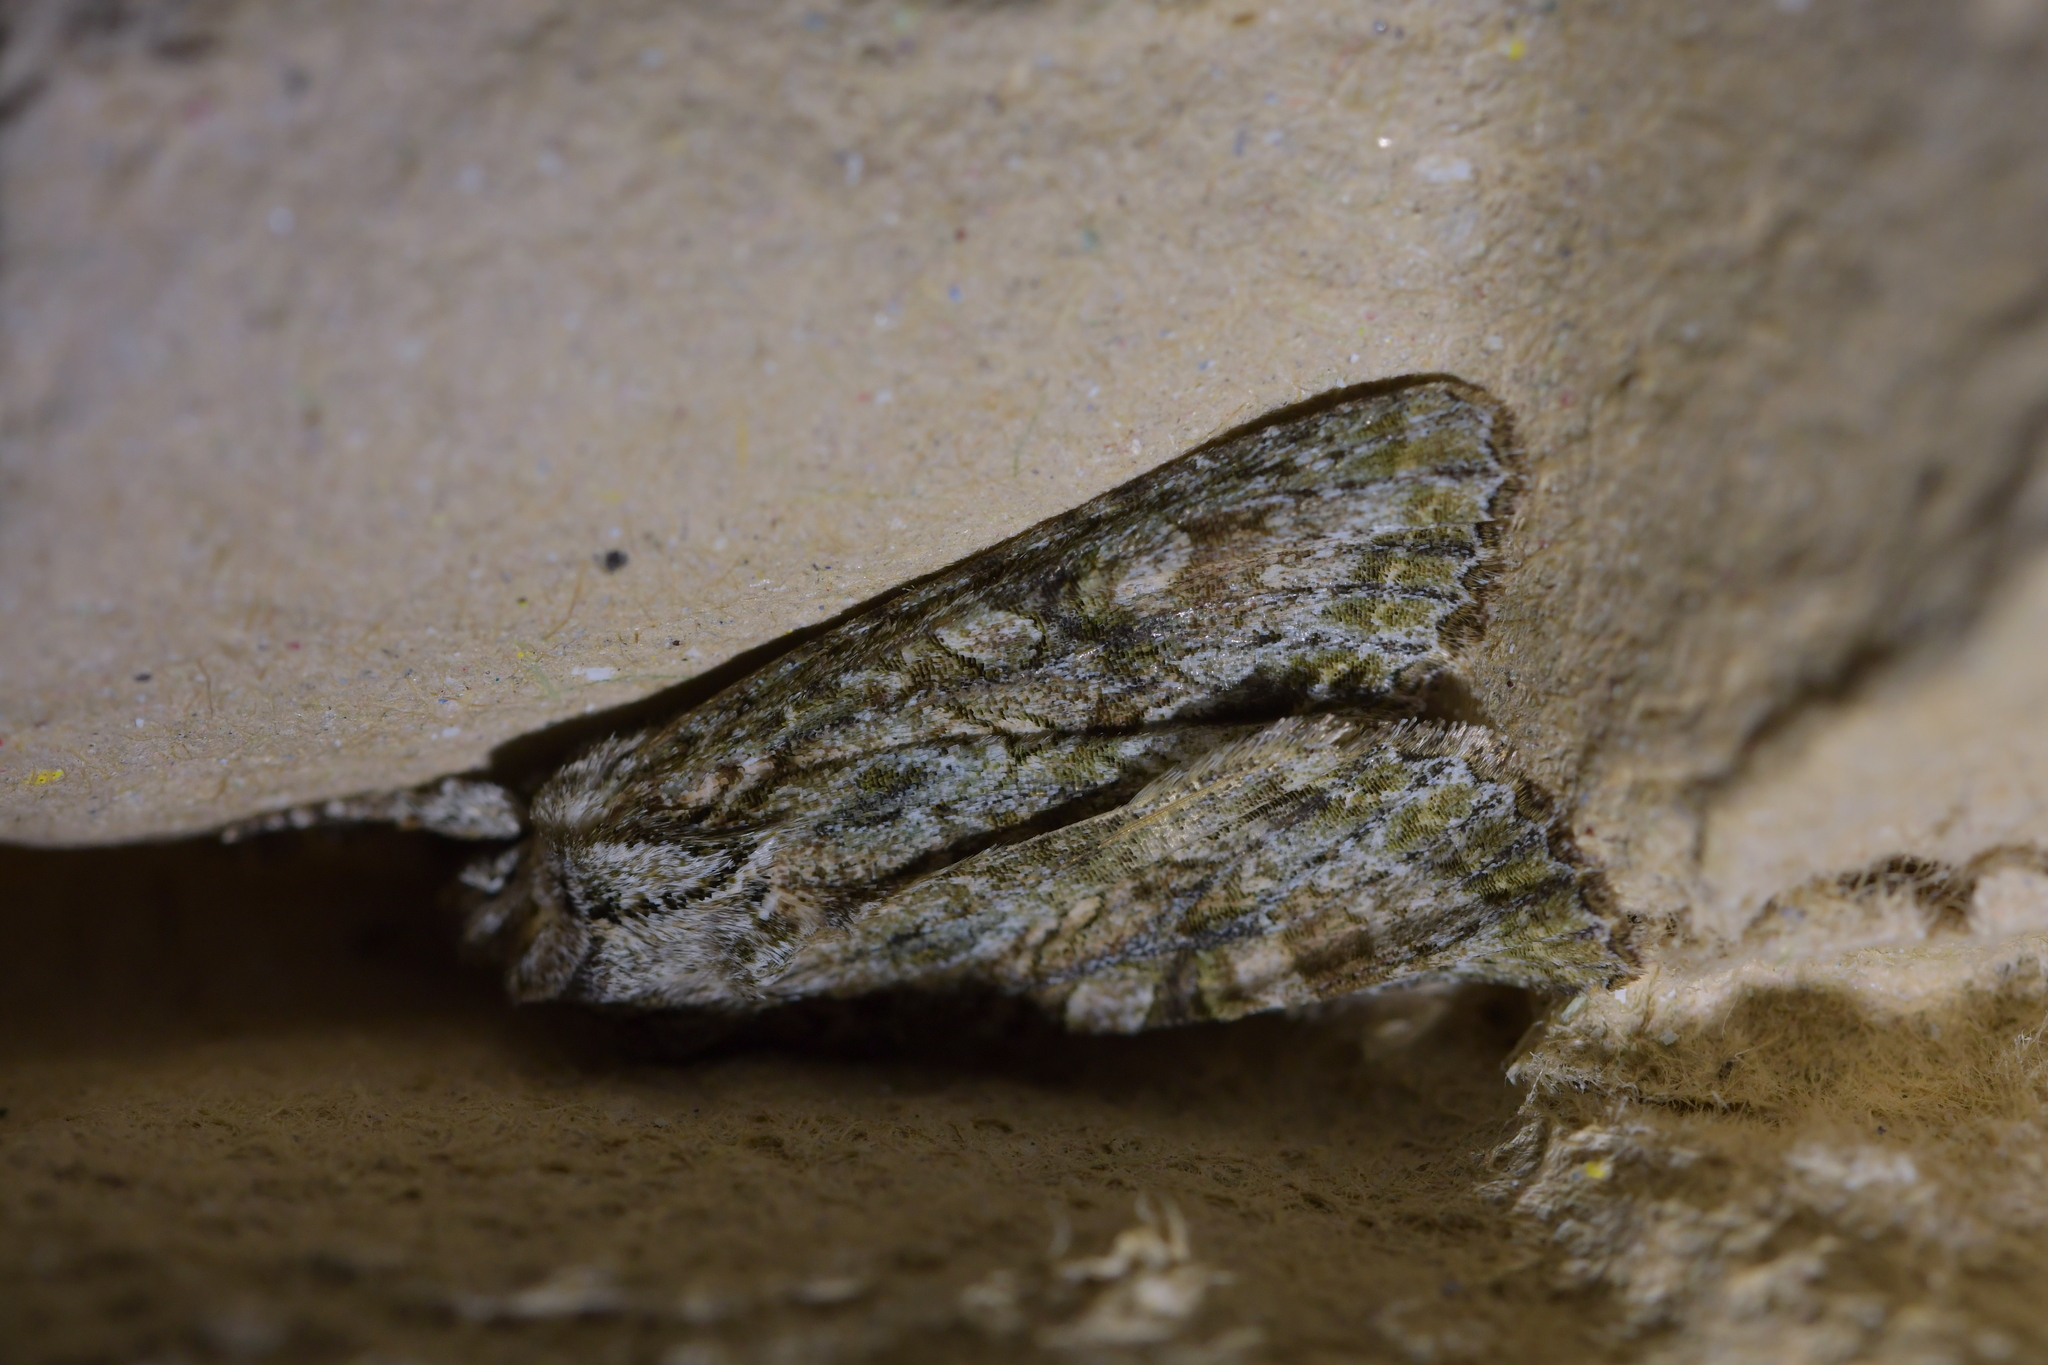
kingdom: Animalia
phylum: Arthropoda
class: Insecta
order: Lepidoptera
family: Noctuidae
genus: Ichneutica
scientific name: Ichneutica mutans
